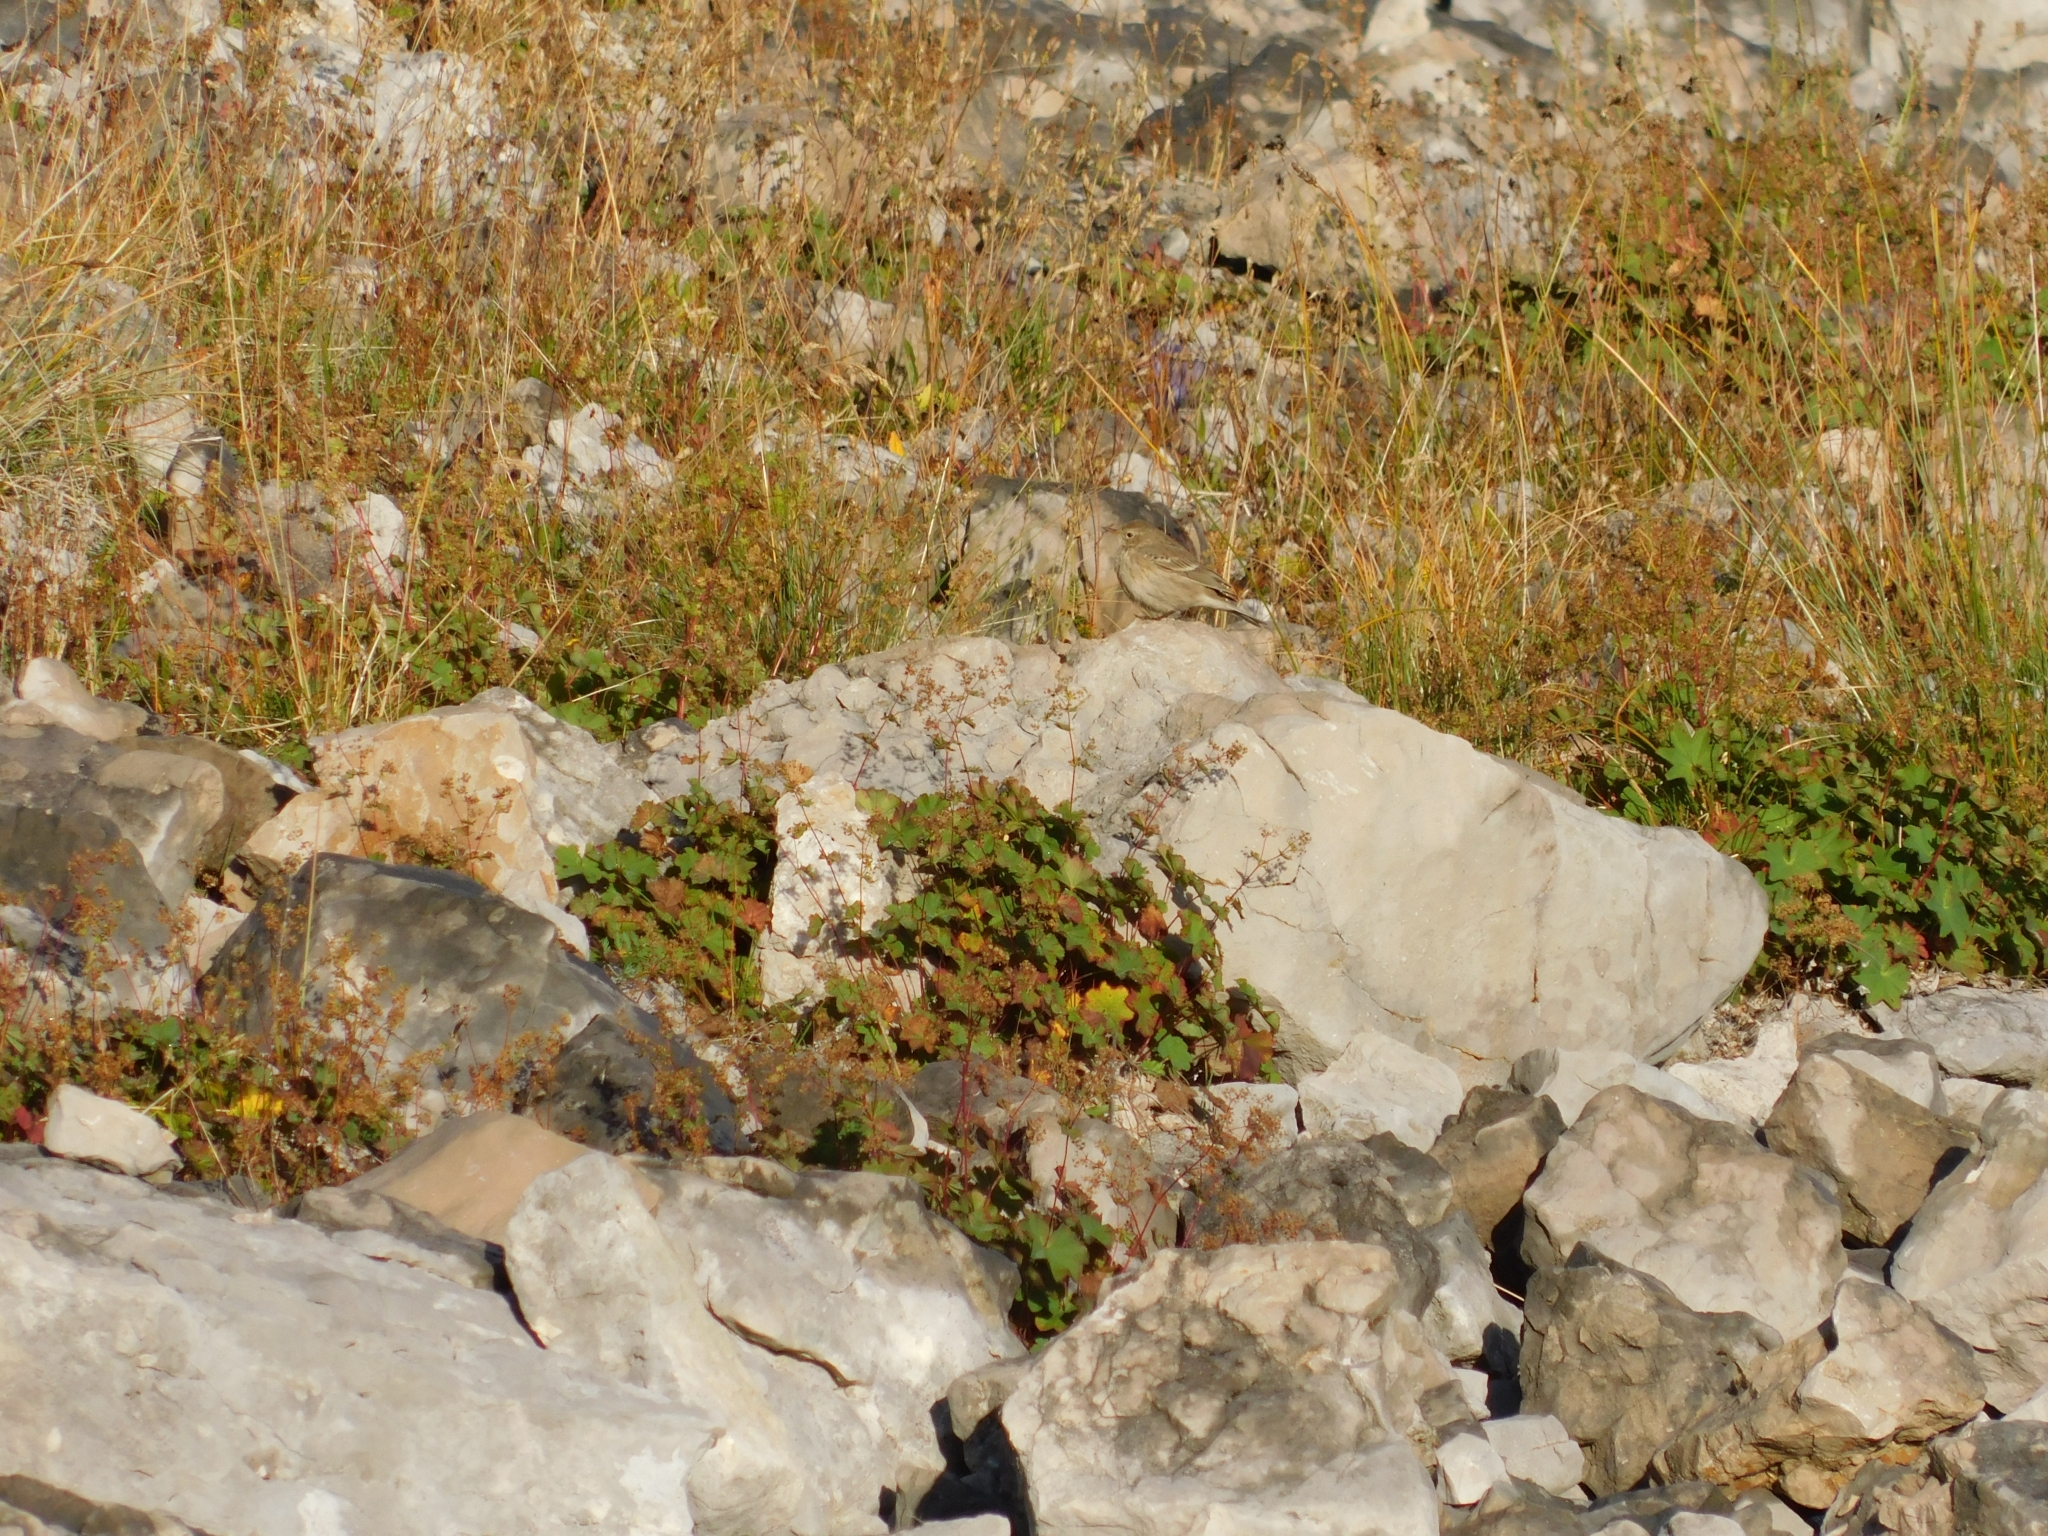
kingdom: Animalia
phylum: Chordata
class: Aves
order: Passeriformes
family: Motacillidae
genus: Anthus
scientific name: Anthus spinoletta
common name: Water pipit
